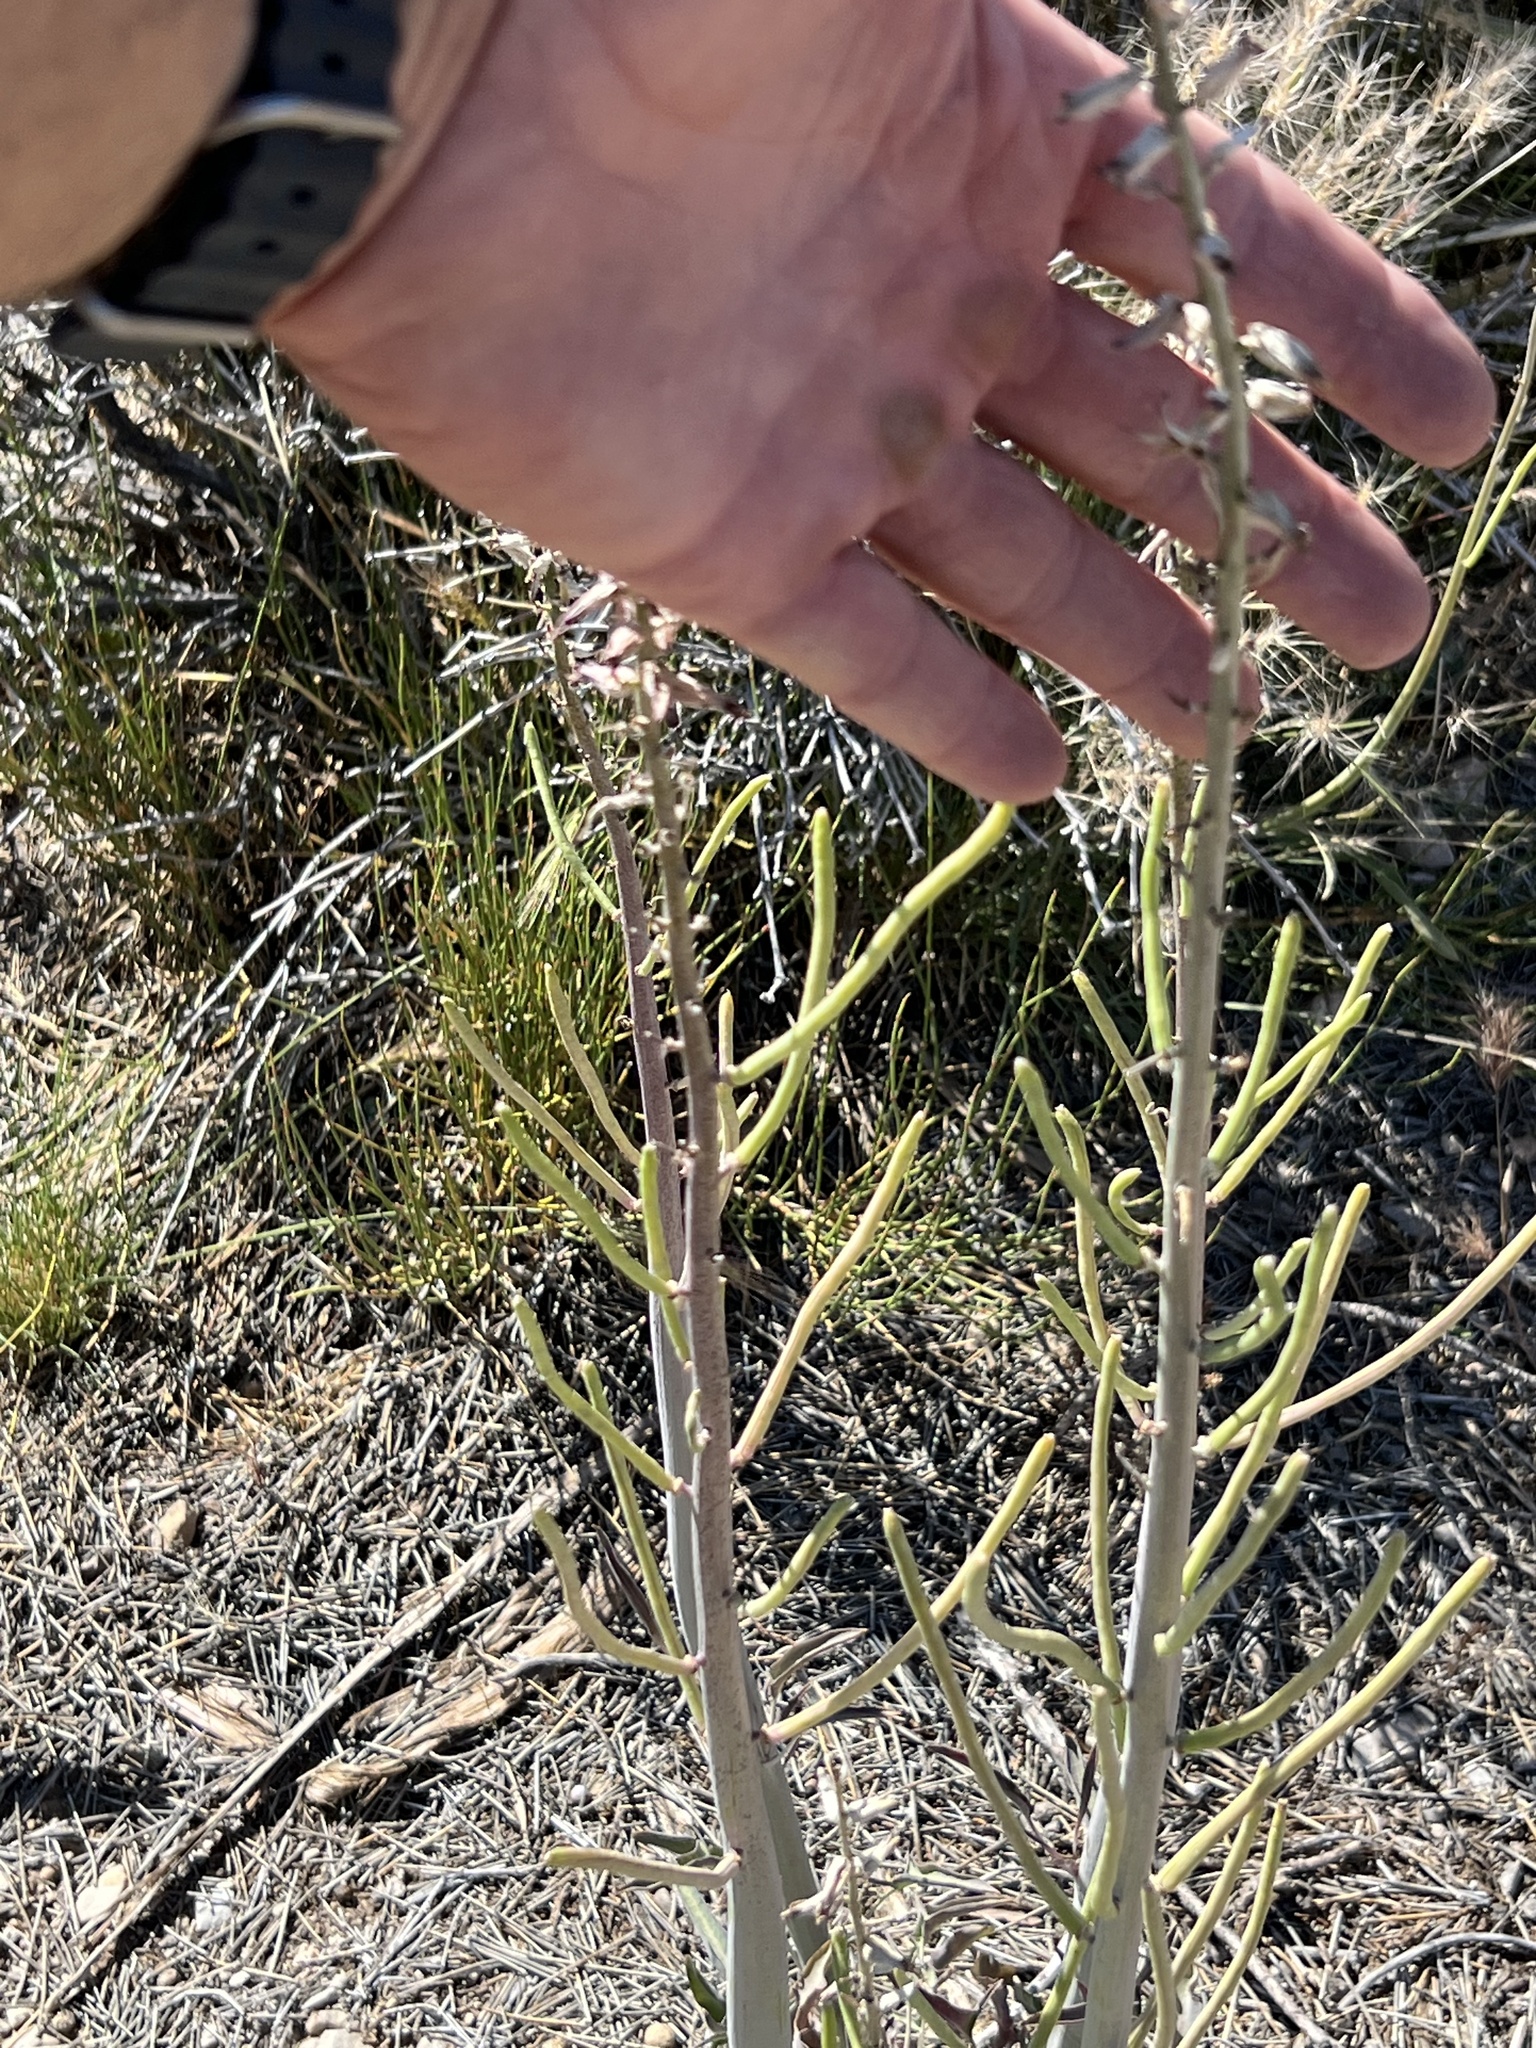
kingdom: Plantae
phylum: Tracheophyta
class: Magnoliopsida
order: Brassicales
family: Brassicaceae
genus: Streptanthus
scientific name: Streptanthus crassicaulis
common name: Thick-stem wild cabbage
